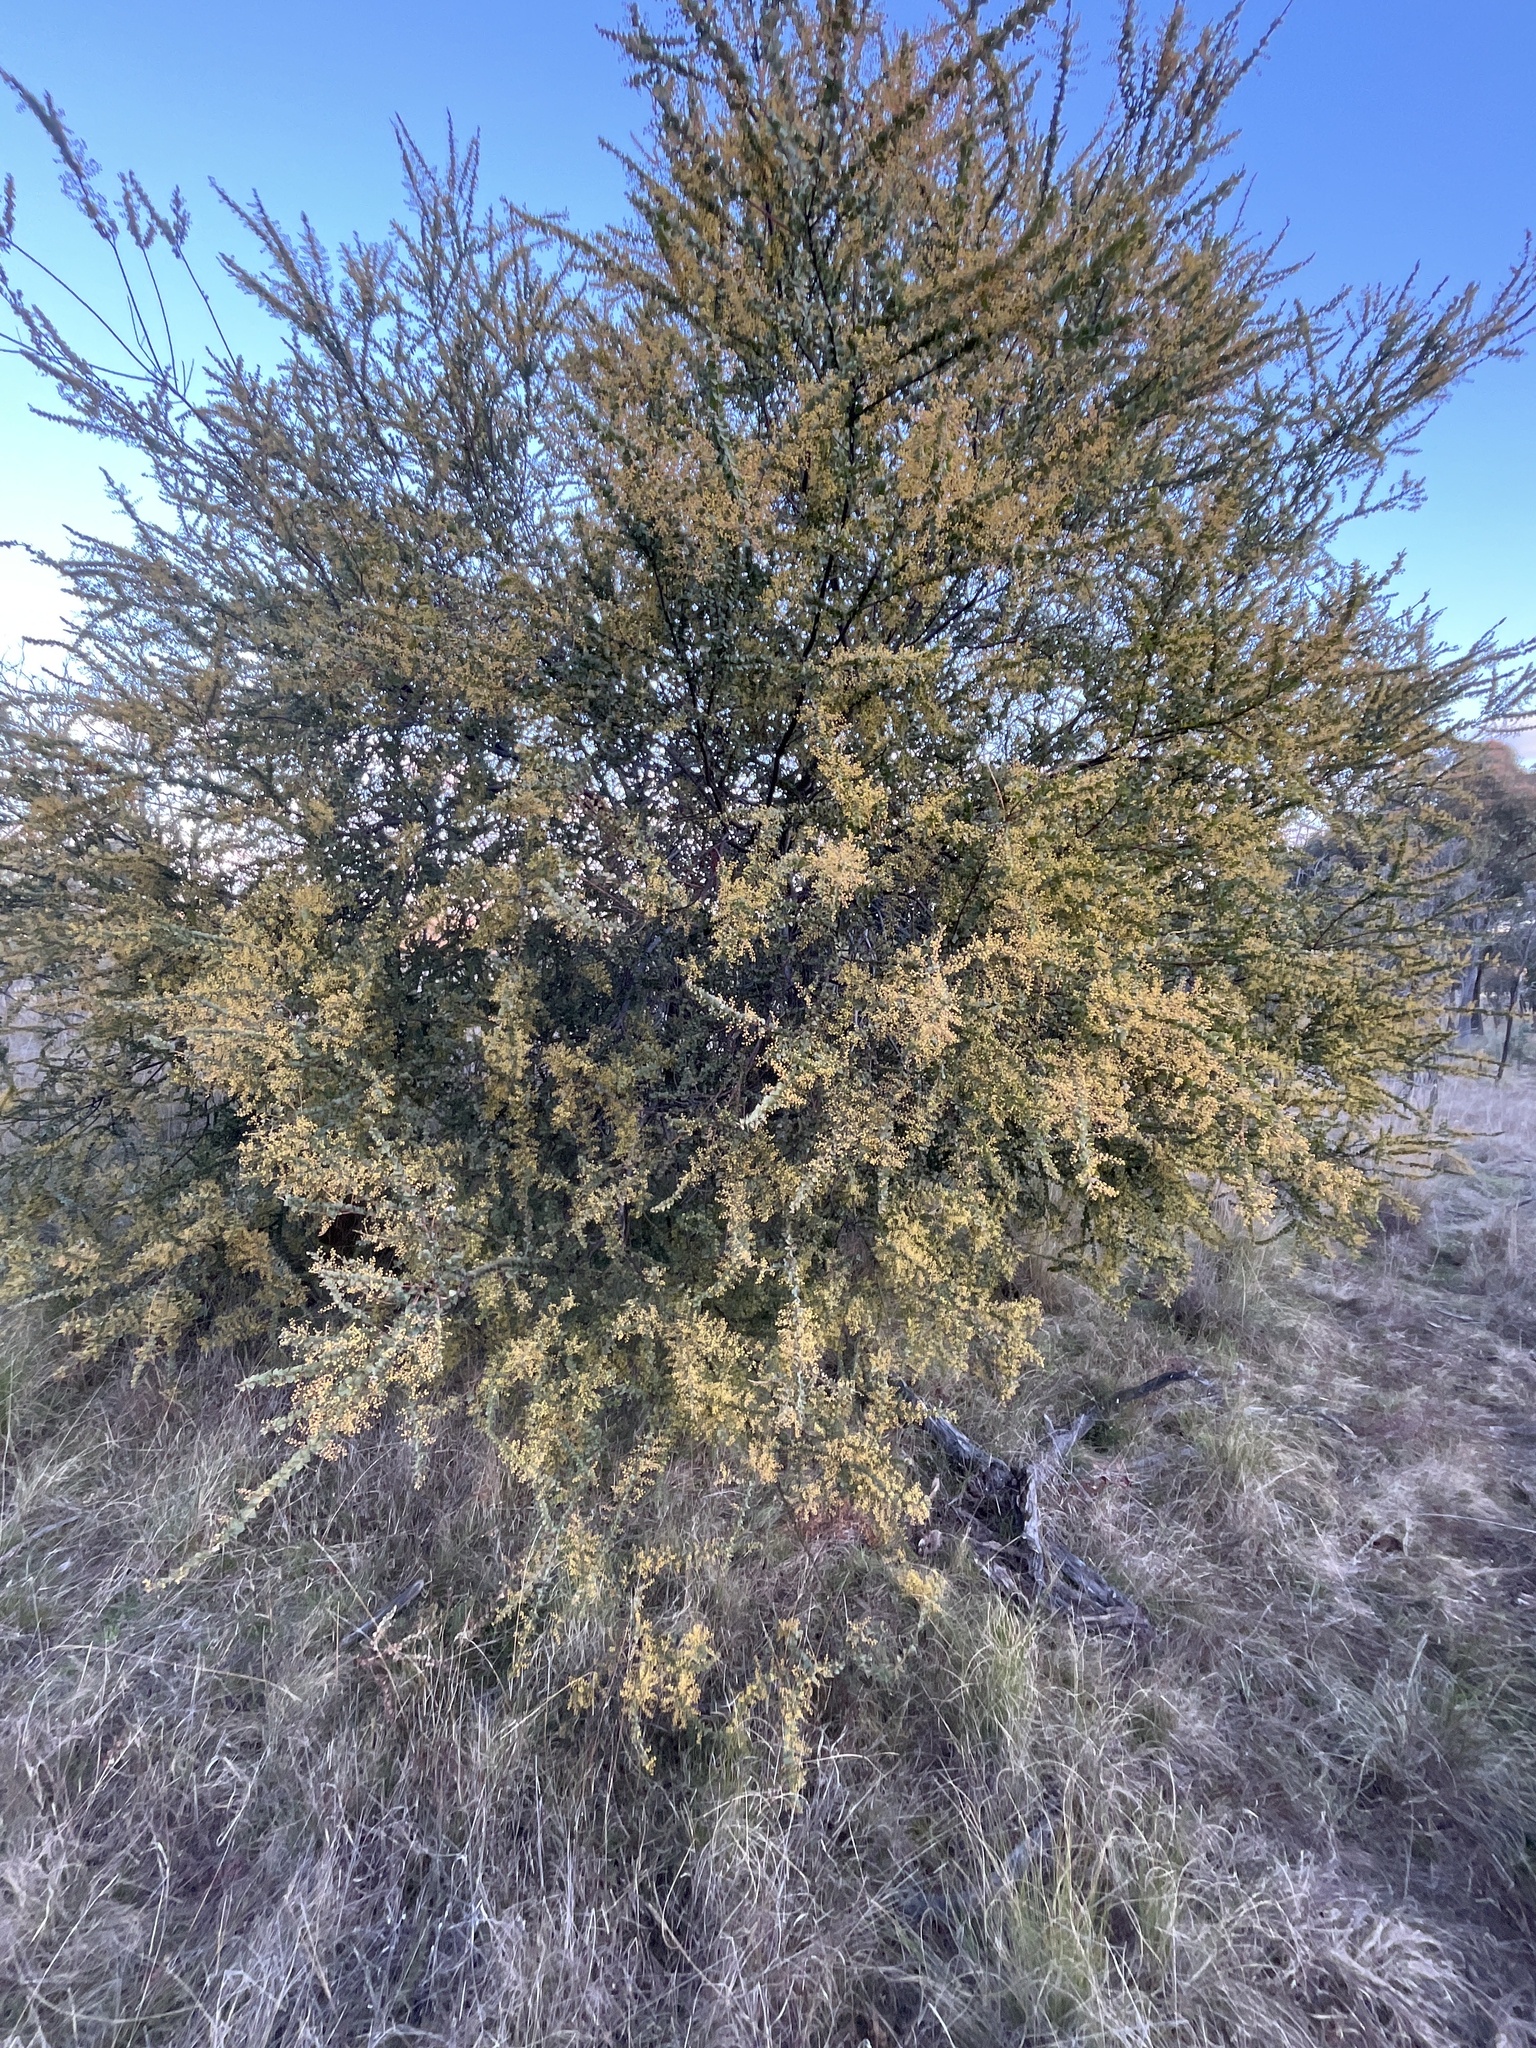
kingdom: Plantae
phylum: Tracheophyta
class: Magnoliopsida
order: Fabales
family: Fabaceae
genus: Acacia
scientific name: Acacia pravissima
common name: Tumut wattle
